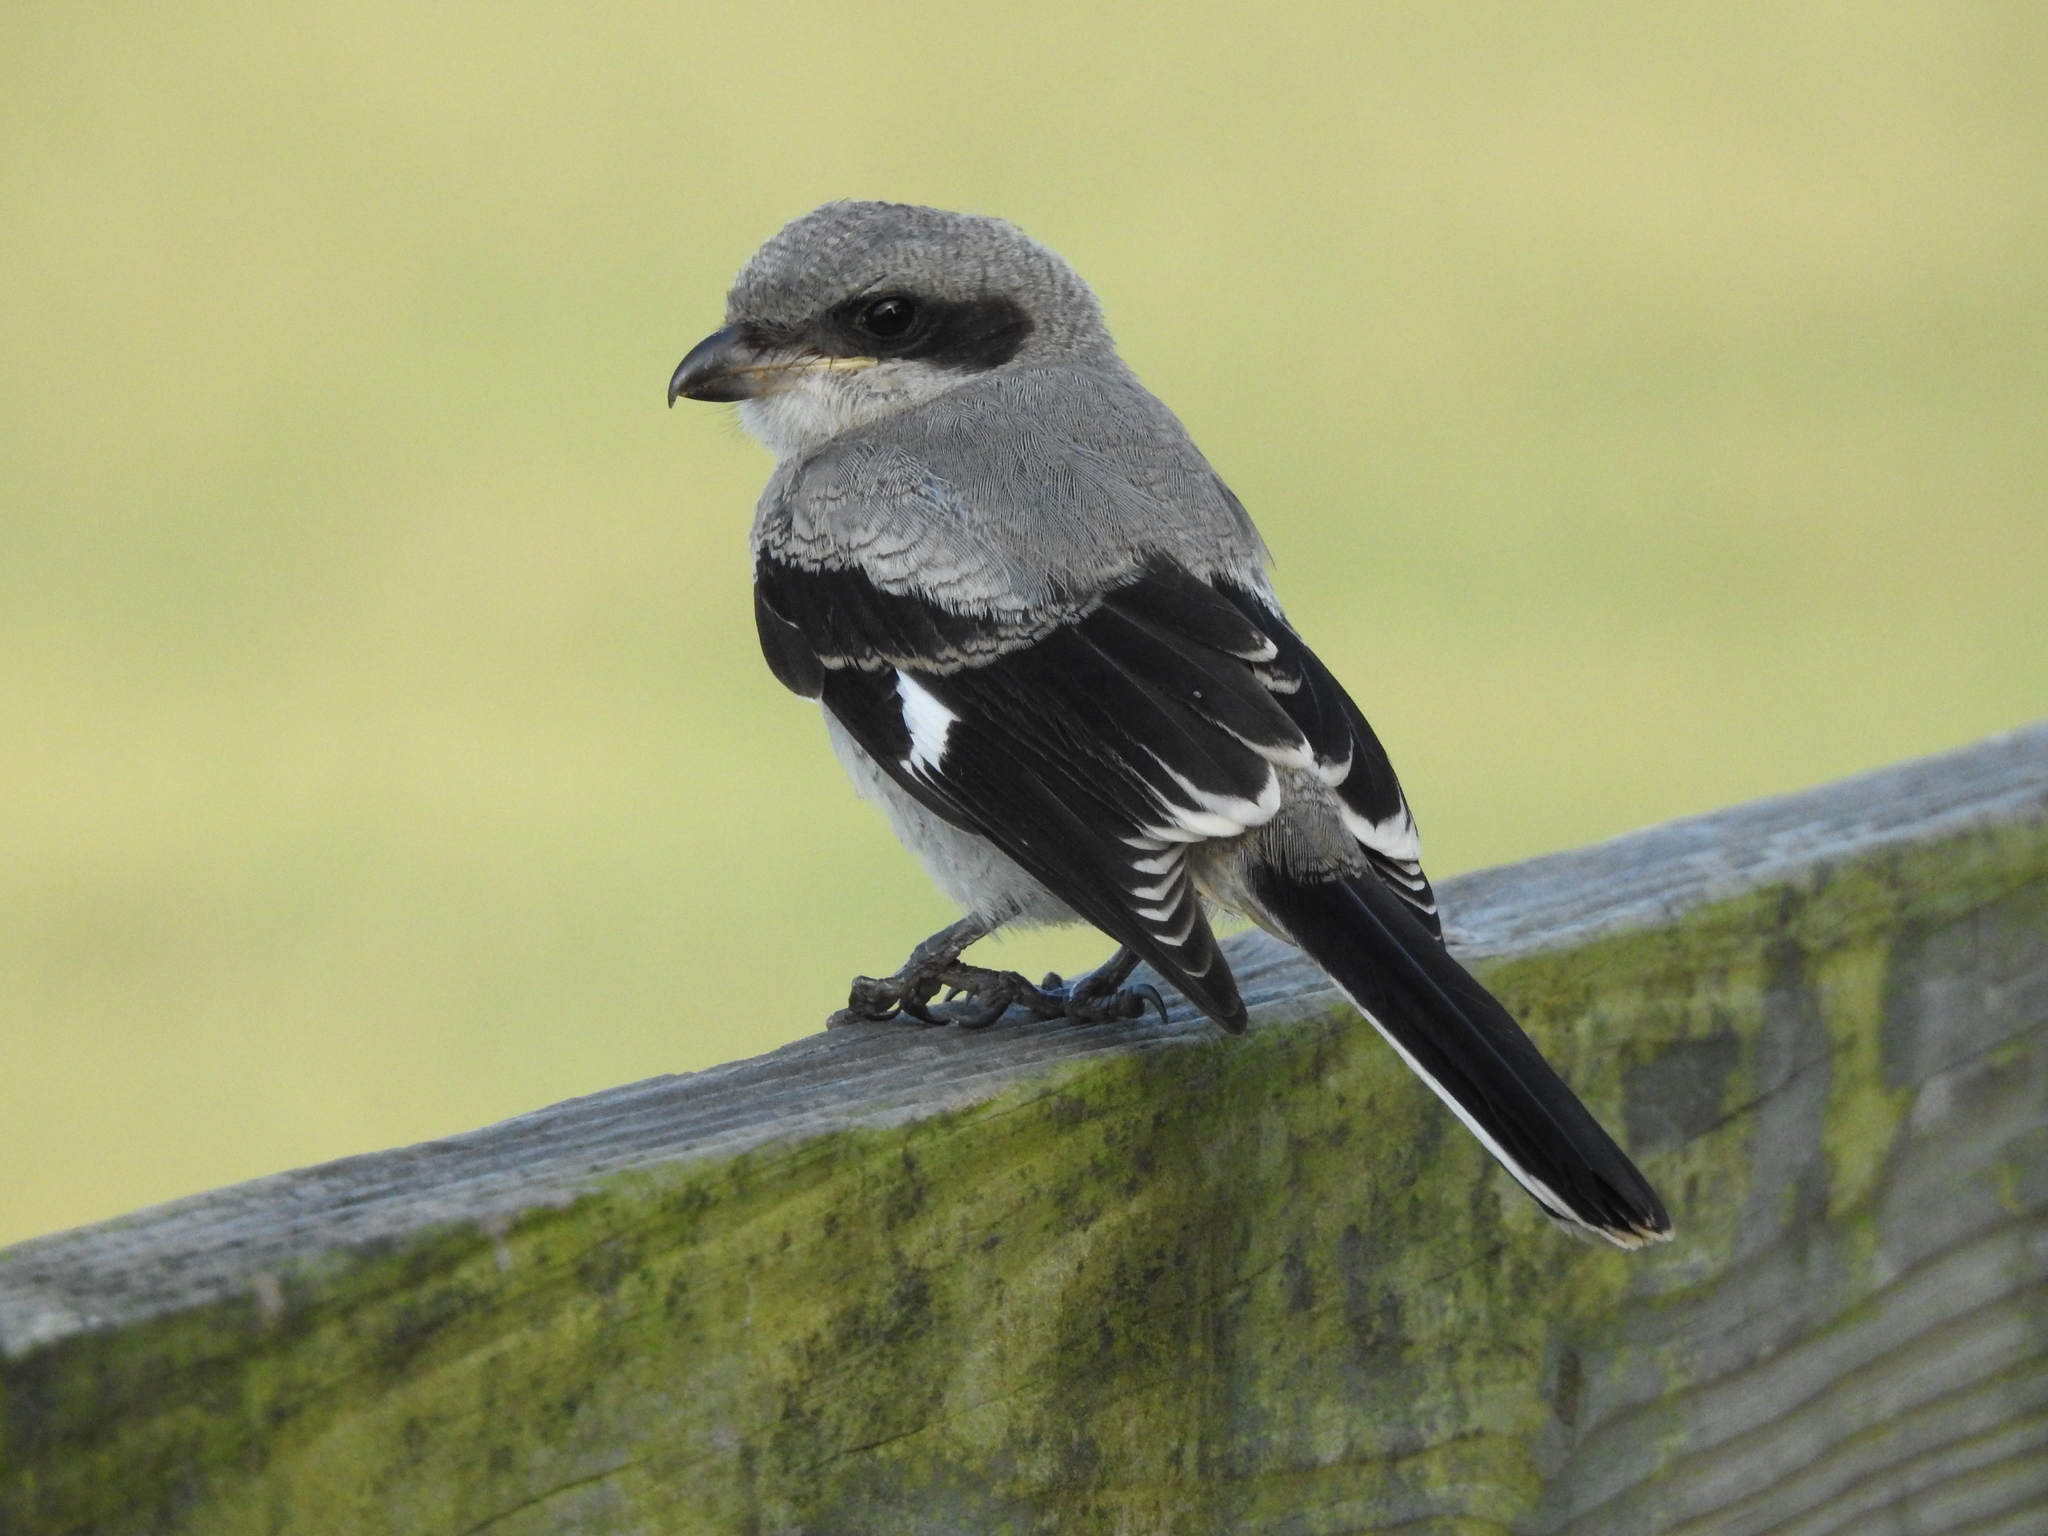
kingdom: Animalia
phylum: Chordata
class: Aves
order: Passeriformes
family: Laniidae
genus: Lanius
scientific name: Lanius ludovicianus
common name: Loggerhead shrike
